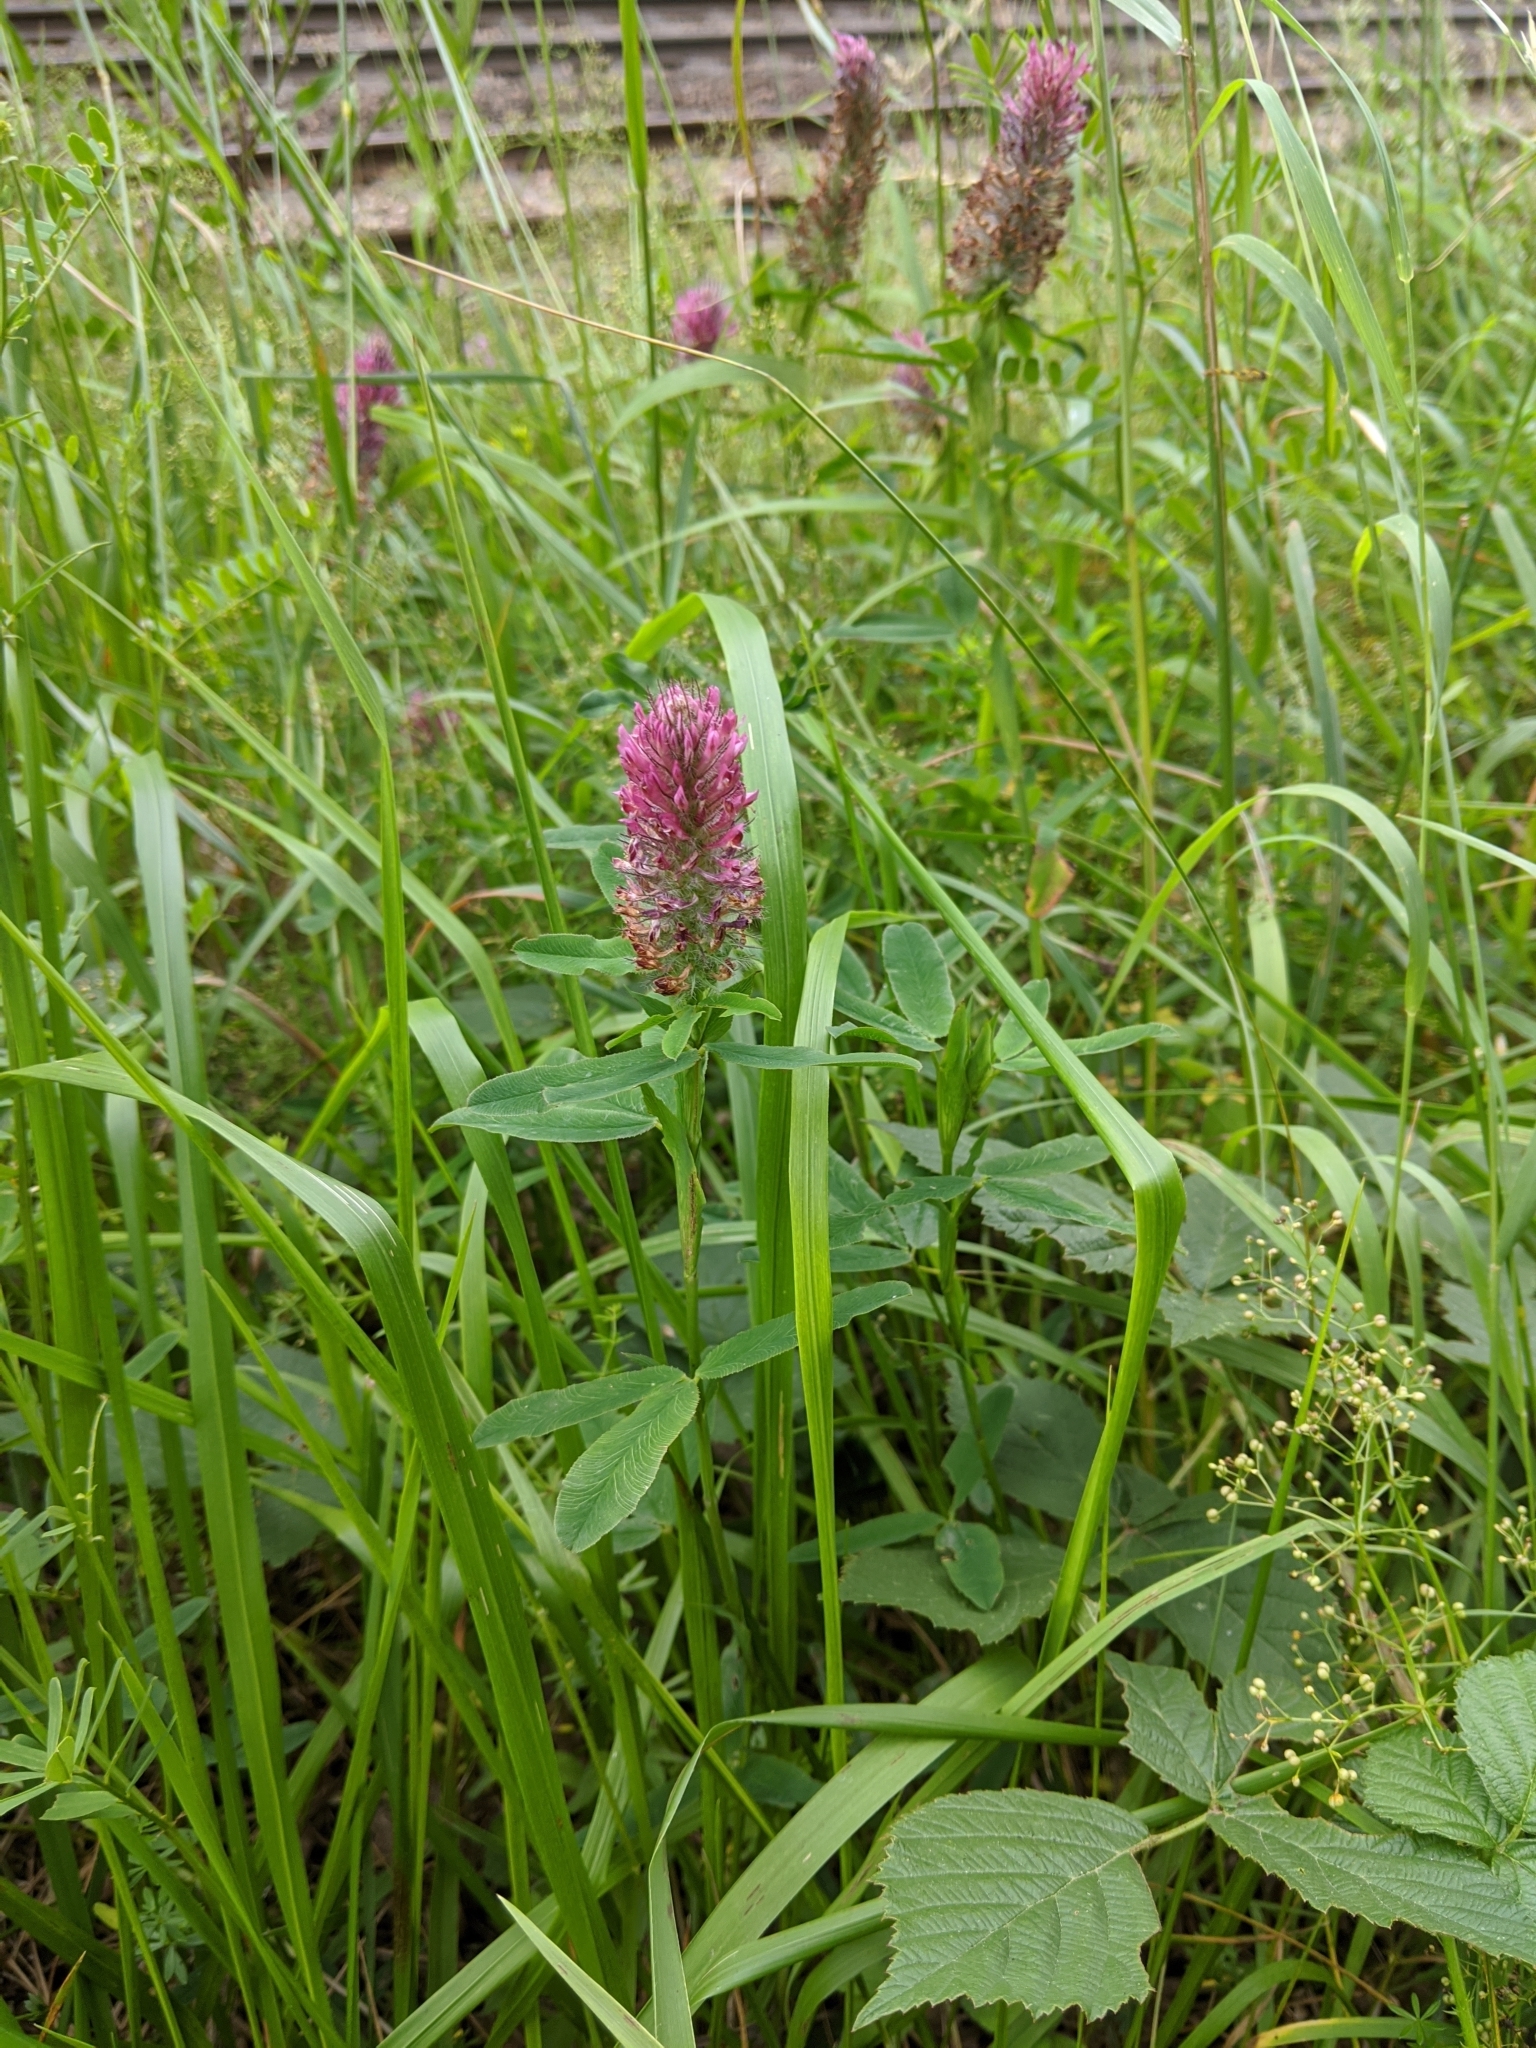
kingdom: Plantae
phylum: Tracheophyta
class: Magnoliopsida
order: Fabales
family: Fabaceae
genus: Trifolium
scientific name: Trifolium rubens
